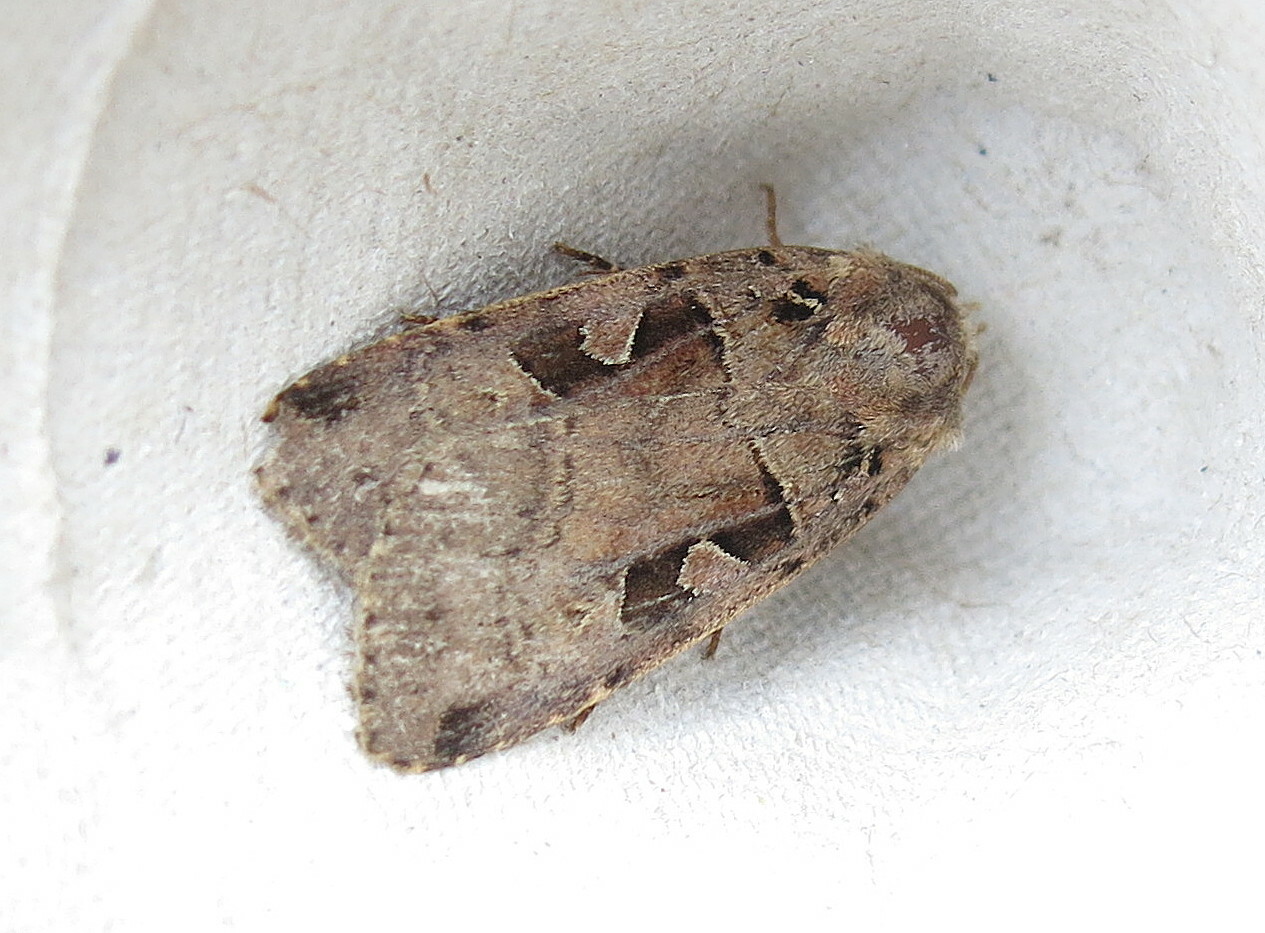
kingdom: Animalia
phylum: Arthropoda
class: Insecta
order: Lepidoptera
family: Noctuidae
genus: Xestia
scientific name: Xestia triangulum
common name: Double square-spot
